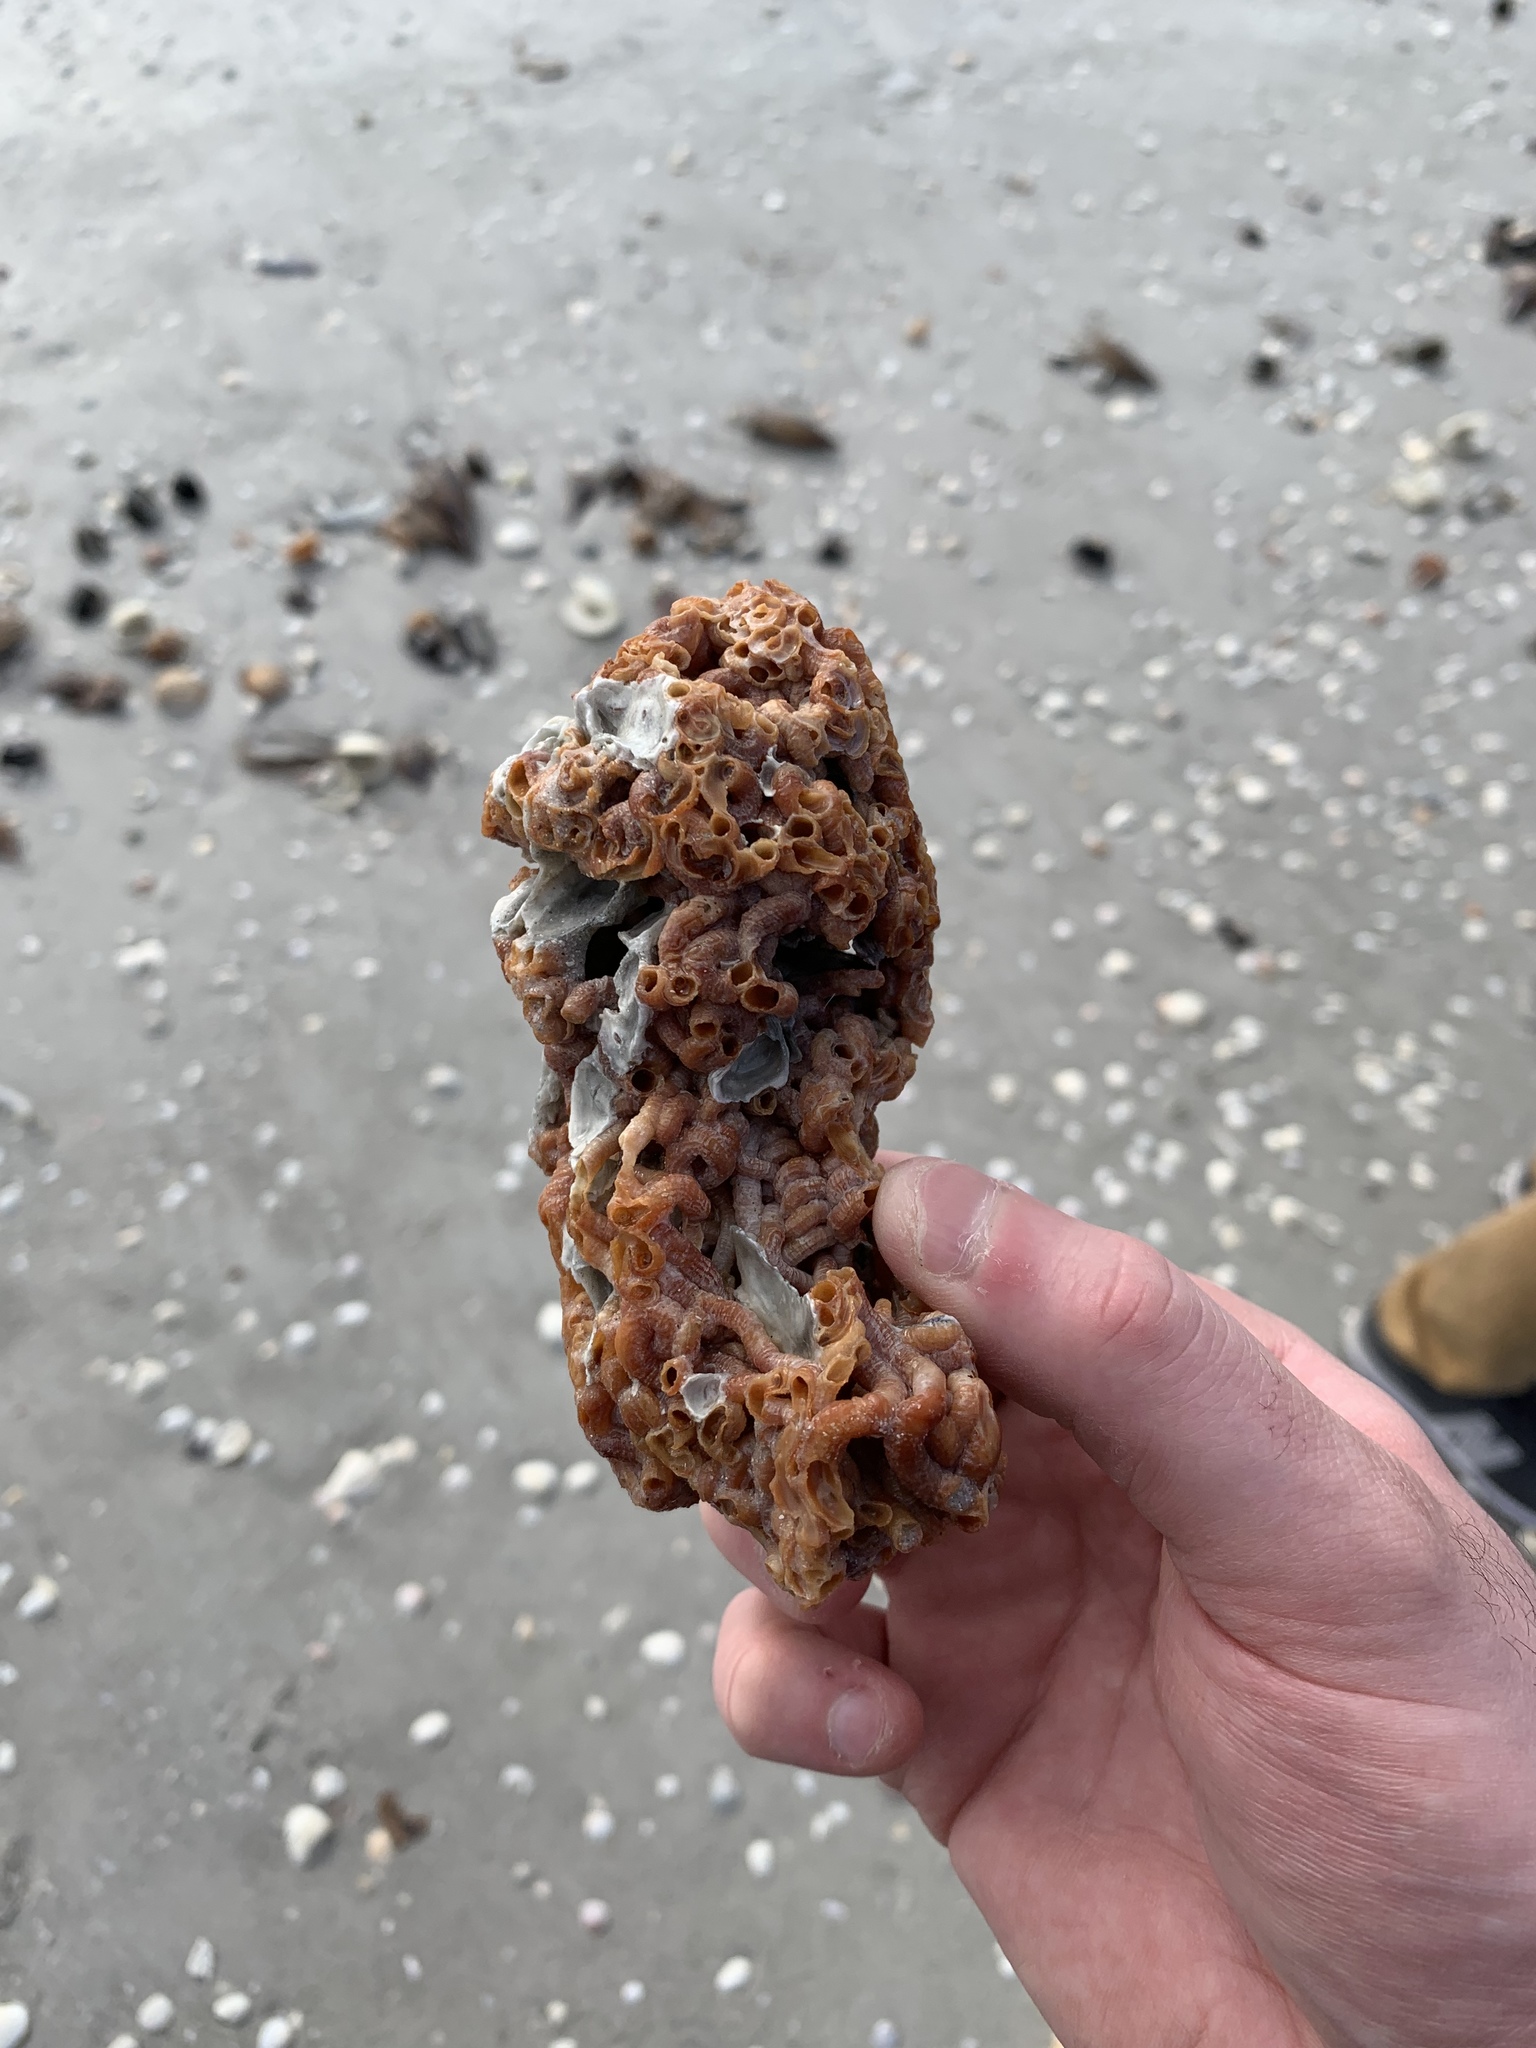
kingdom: Animalia
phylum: Mollusca
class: Gastropoda
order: Littorinimorpha
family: Vermetidae
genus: Petaloconchus
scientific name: Petaloconchus varians
